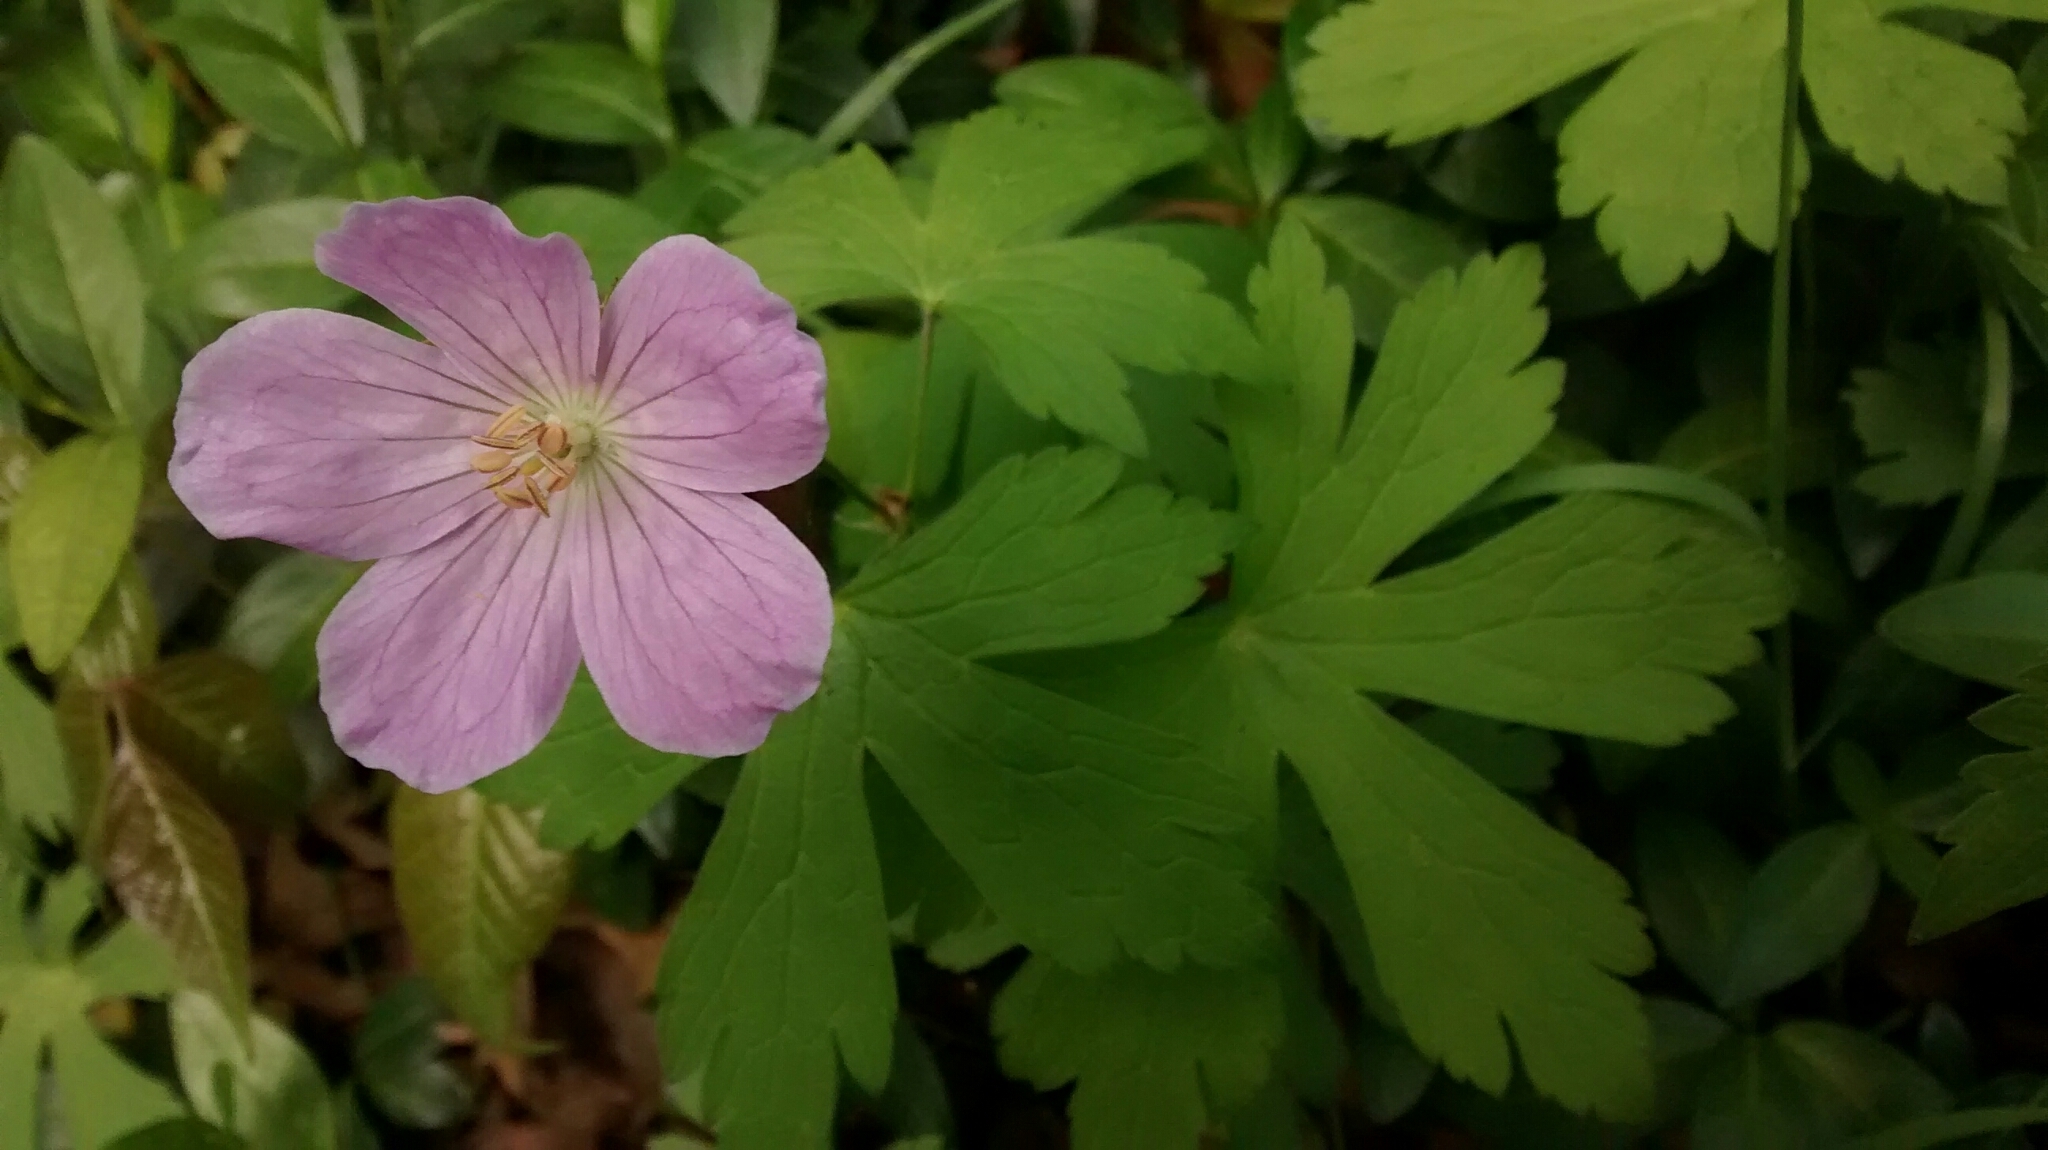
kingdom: Plantae
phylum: Tracheophyta
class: Magnoliopsida
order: Geraniales
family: Geraniaceae
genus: Geranium
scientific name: Geranium maculatum
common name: Spotted geranium
